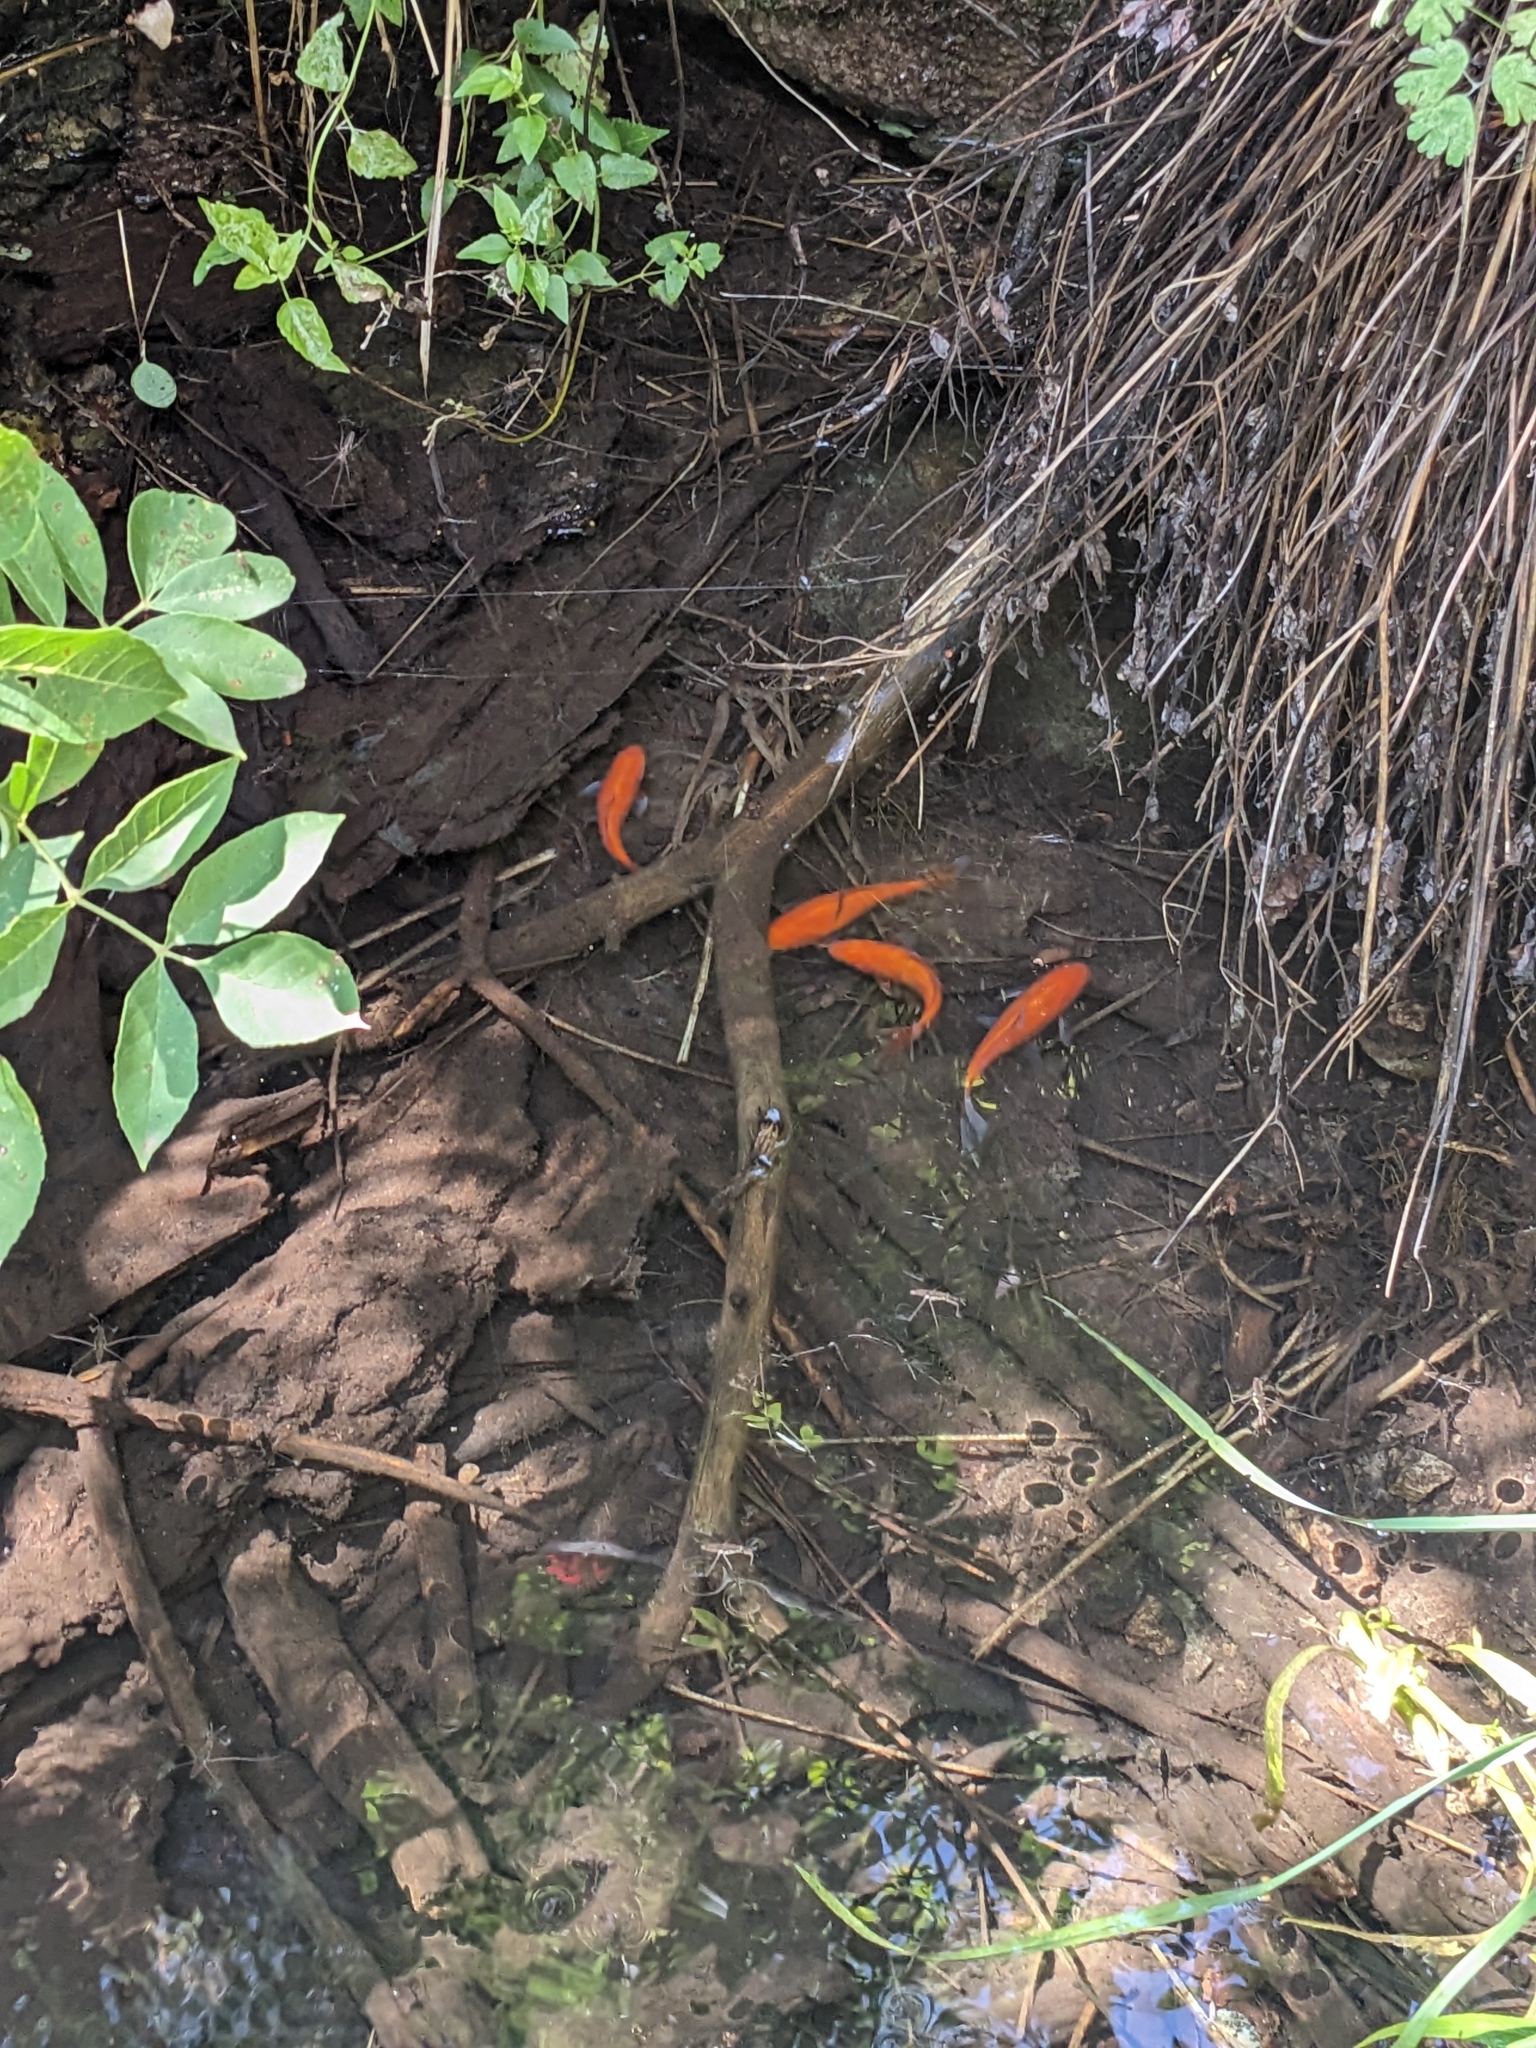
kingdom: Animalia
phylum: Chordata
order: Cypriniformes
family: Cyprinidae
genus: Carassius
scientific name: Carassius auratus
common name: Goldfish
